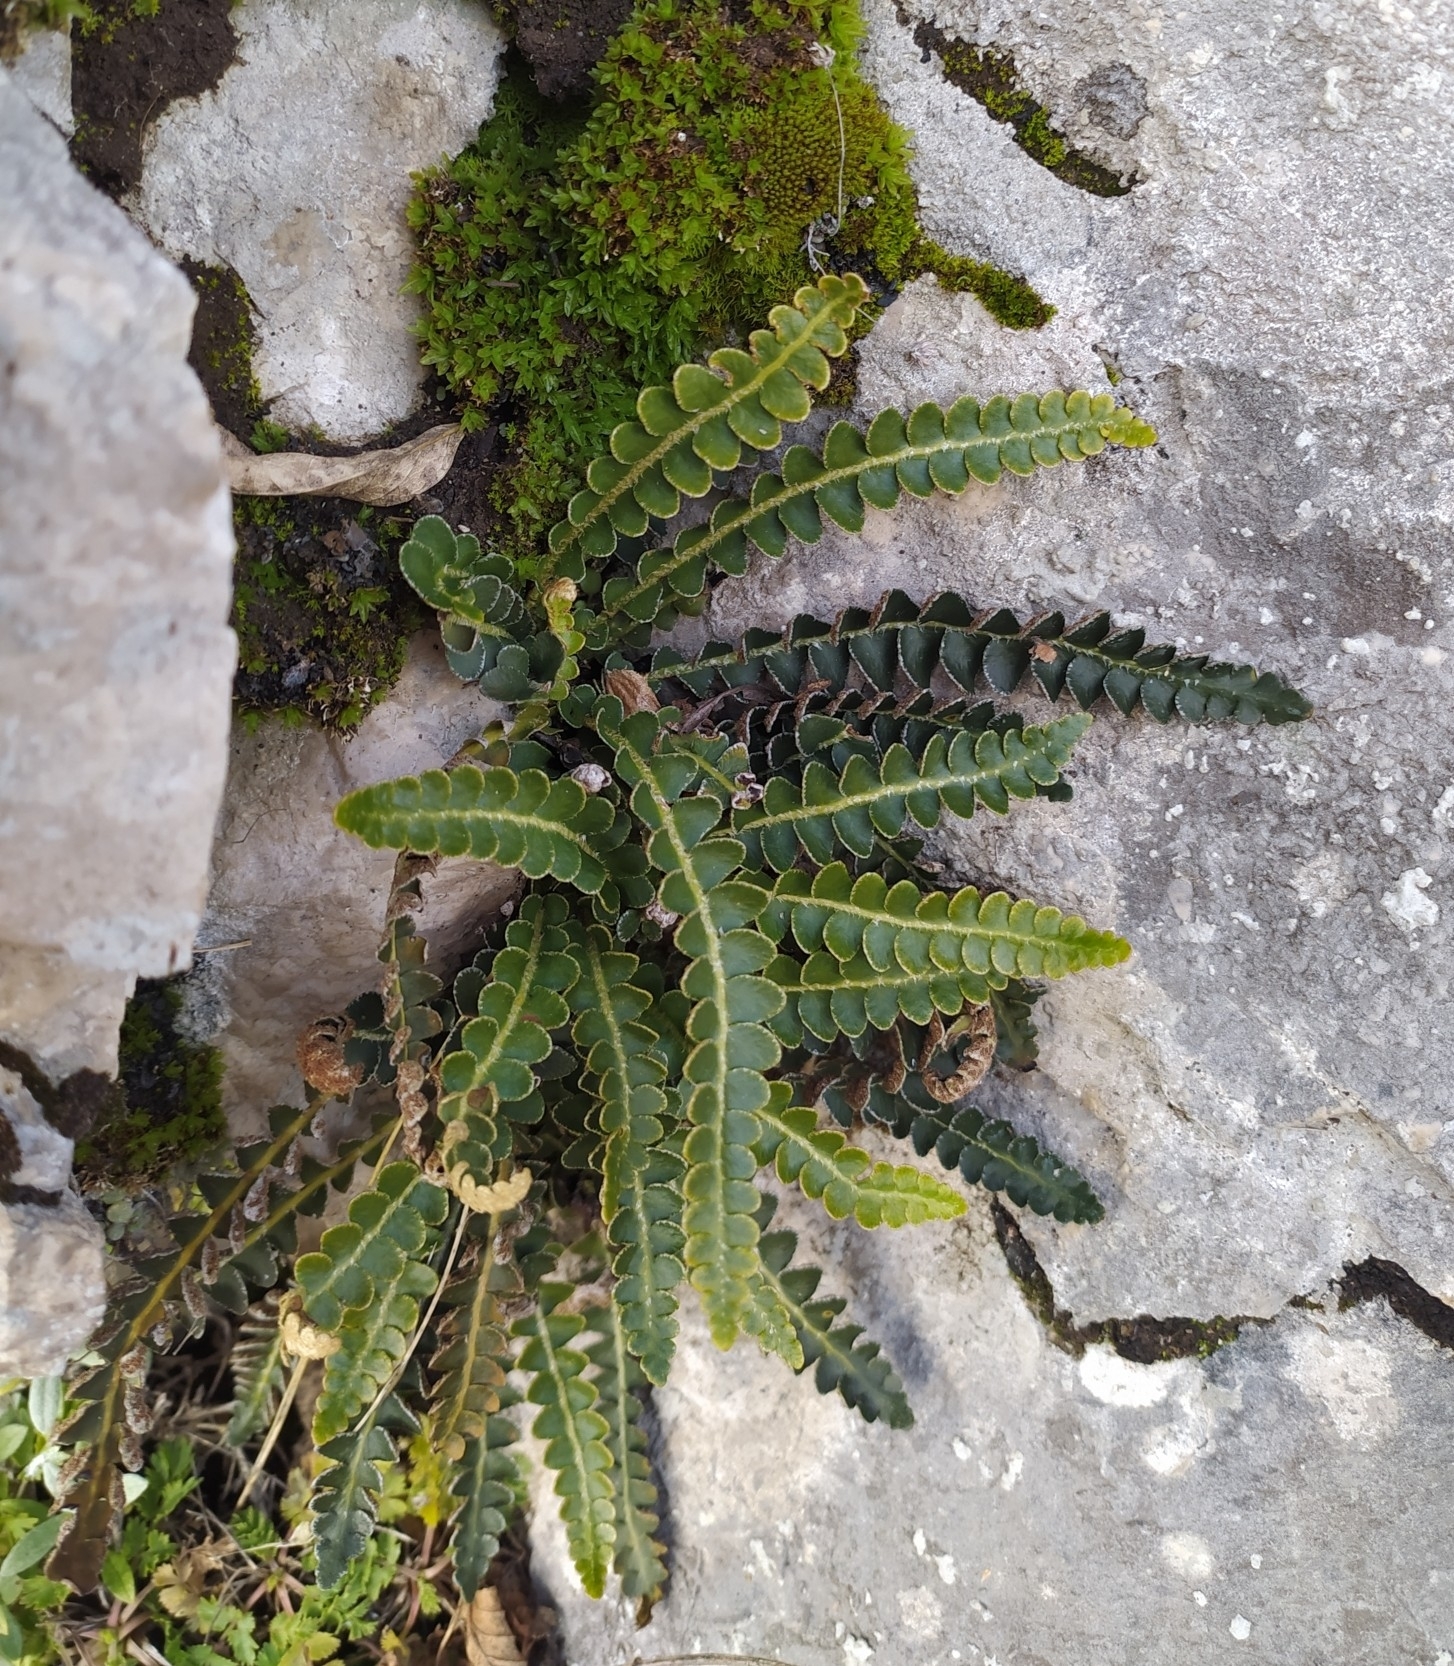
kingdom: Plantae
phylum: Tracheophyta
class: Polypodiopsida
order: Polypodiales
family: Aspleniaceae
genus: Asplenium
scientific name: Asplenium ceterach
